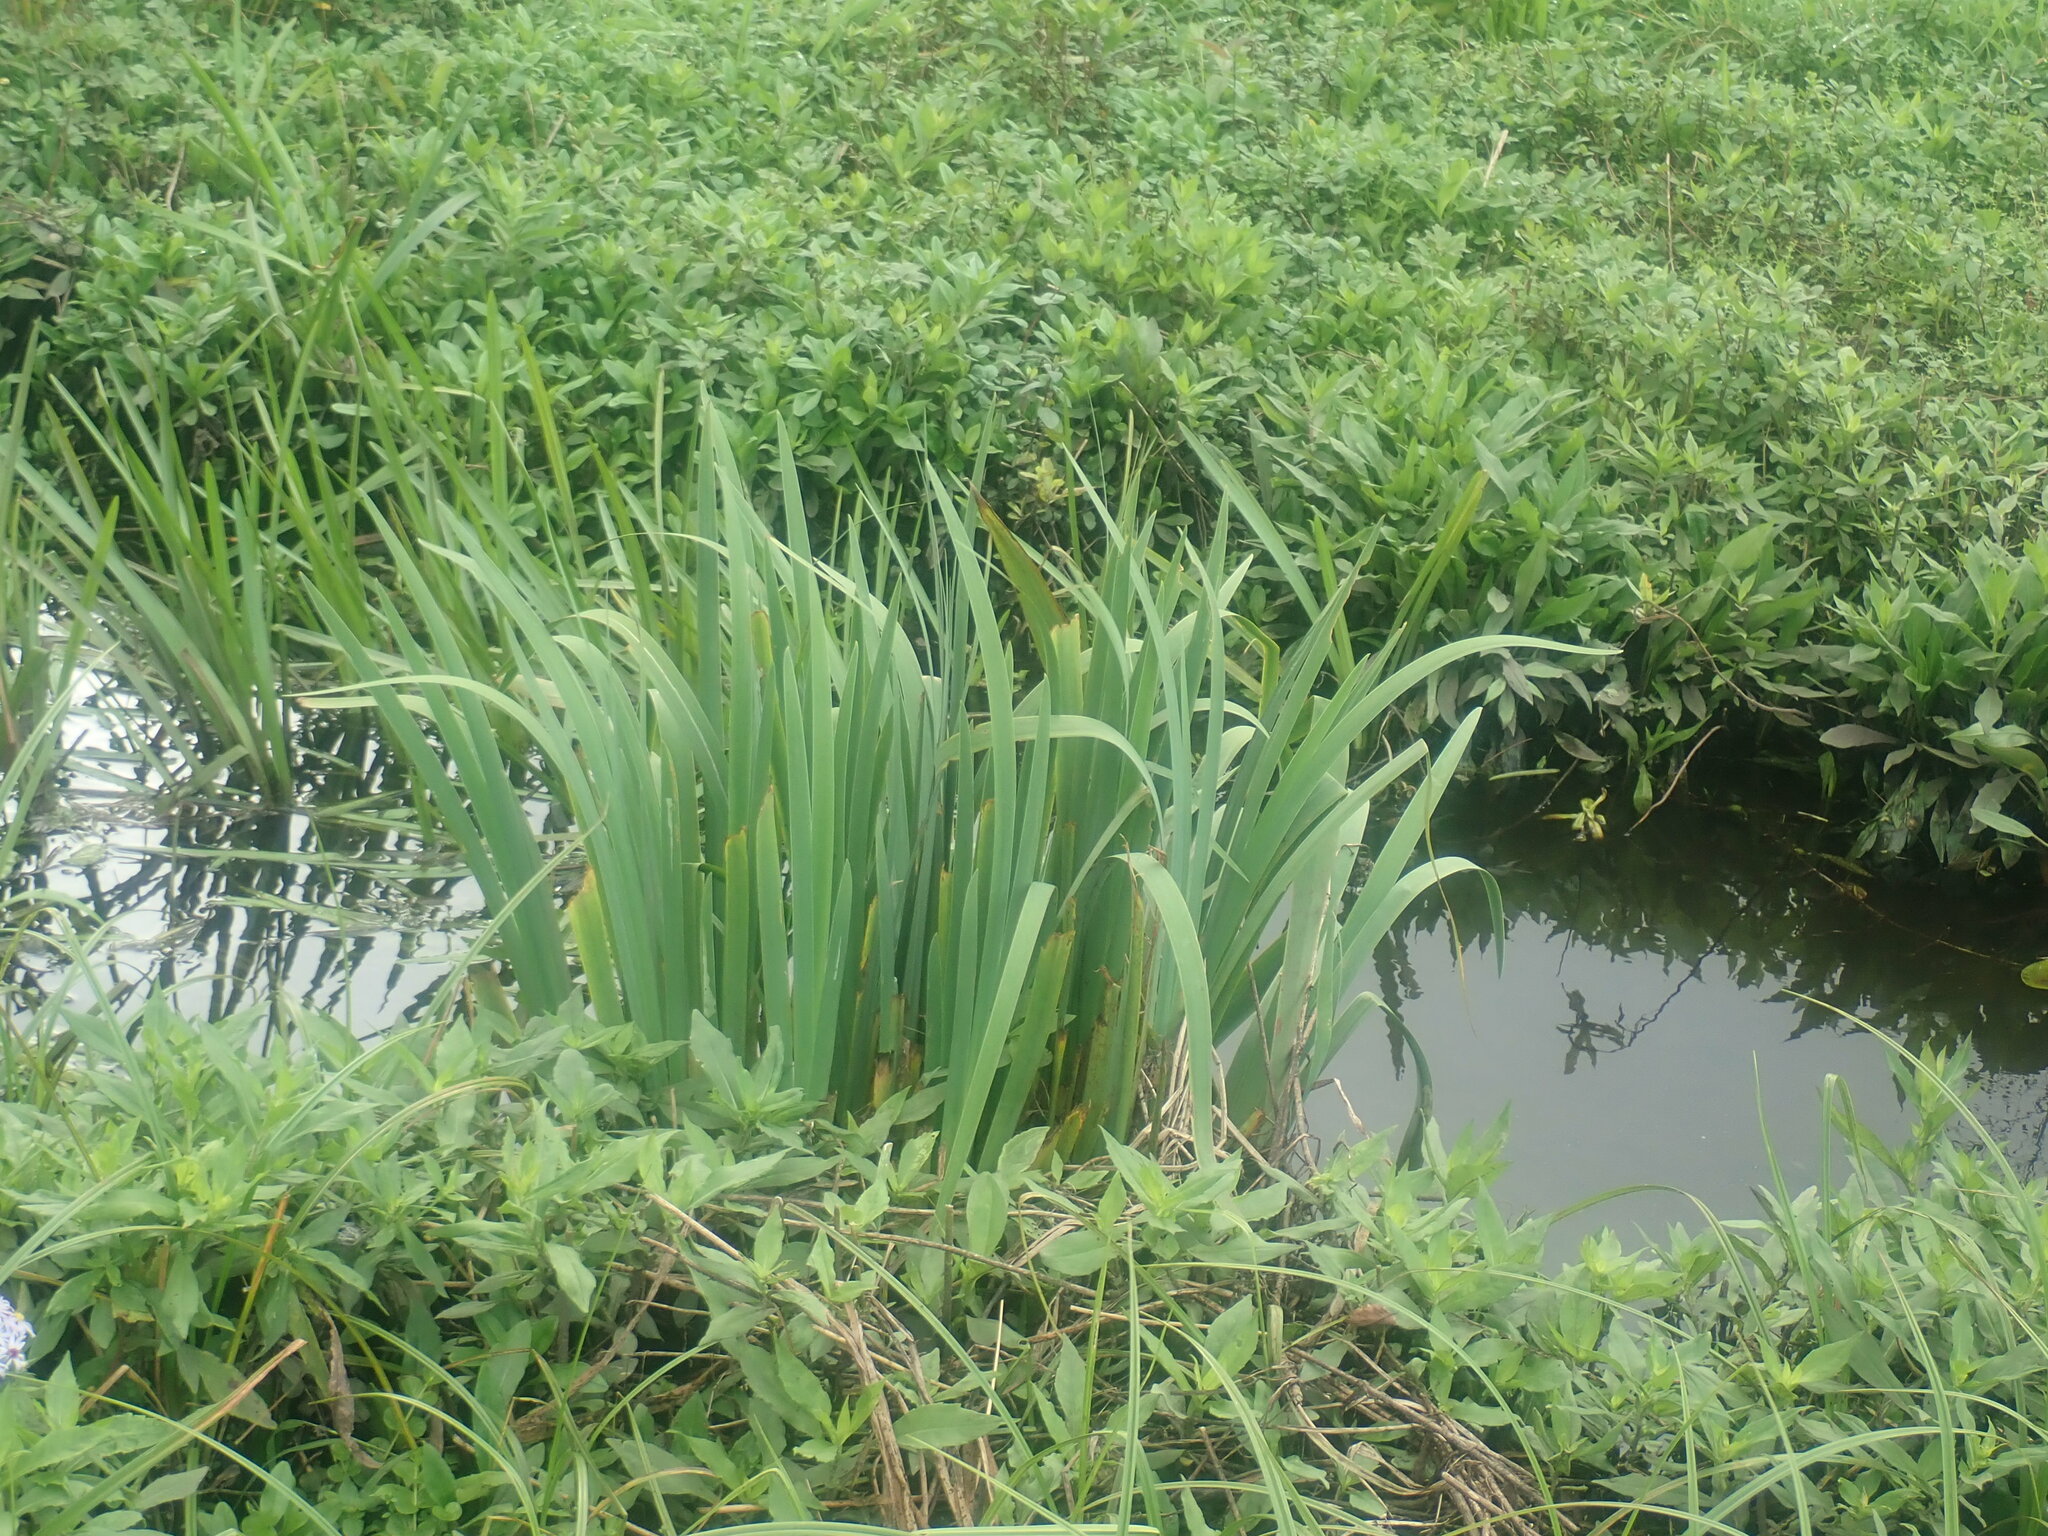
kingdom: Plantae
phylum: Tracheophyta
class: Liliopsida
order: Asparagales
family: Iridaceae
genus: Iris
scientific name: Iris
